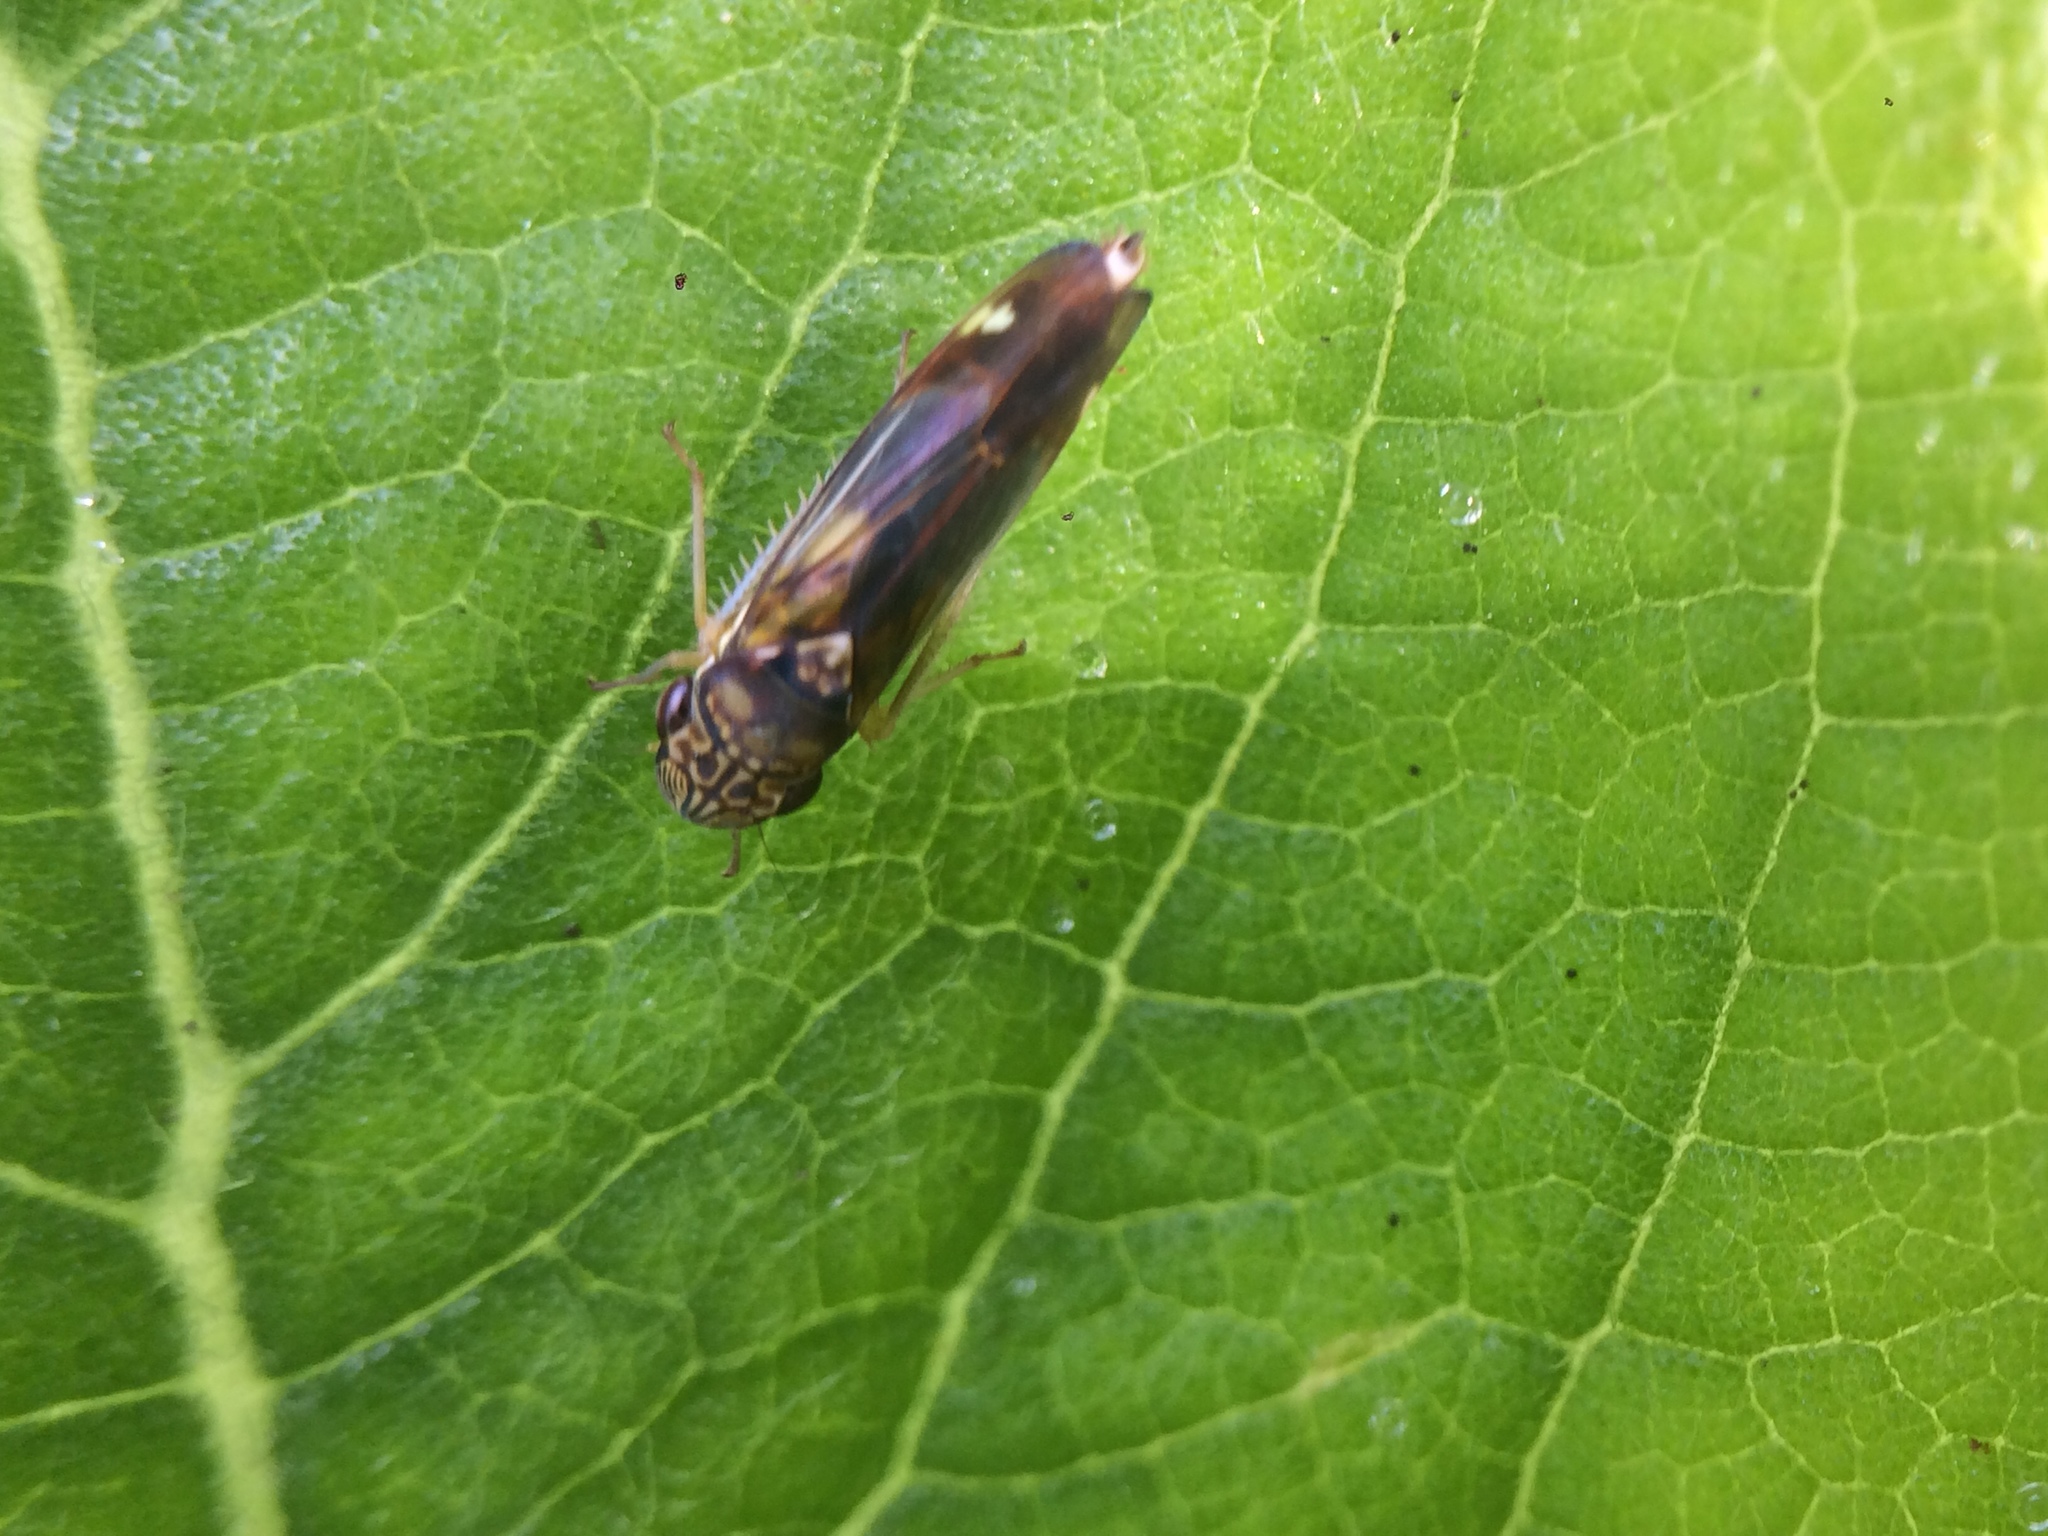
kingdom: Animalia
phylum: Arthropoda
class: Insecta
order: Hemiptera
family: Cicadellidae
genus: Dilobopterus
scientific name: Dilobopterus disparulus
